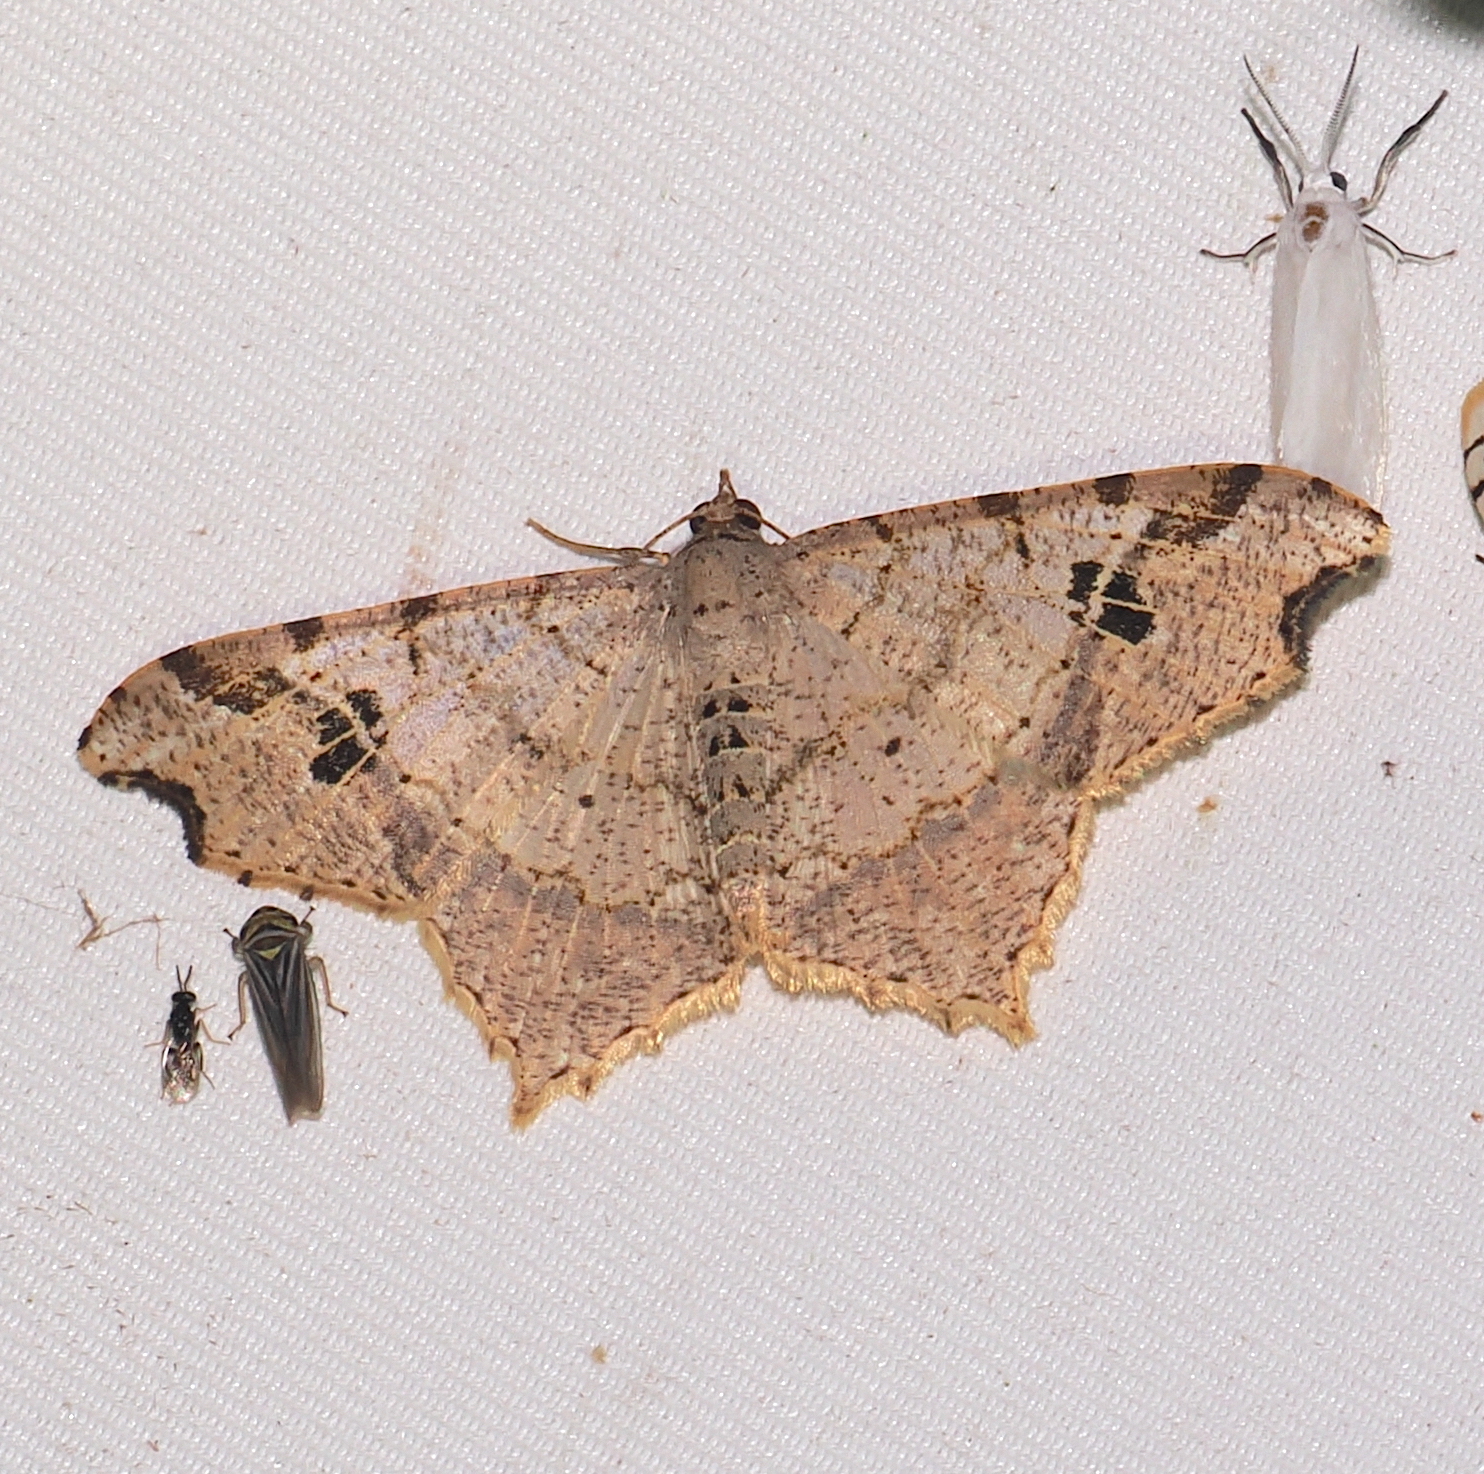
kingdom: Animalia
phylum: Arthropoda
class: Insecta
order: Lepidoptera
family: Geometridae
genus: Macaria
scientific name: Macaria regulata
